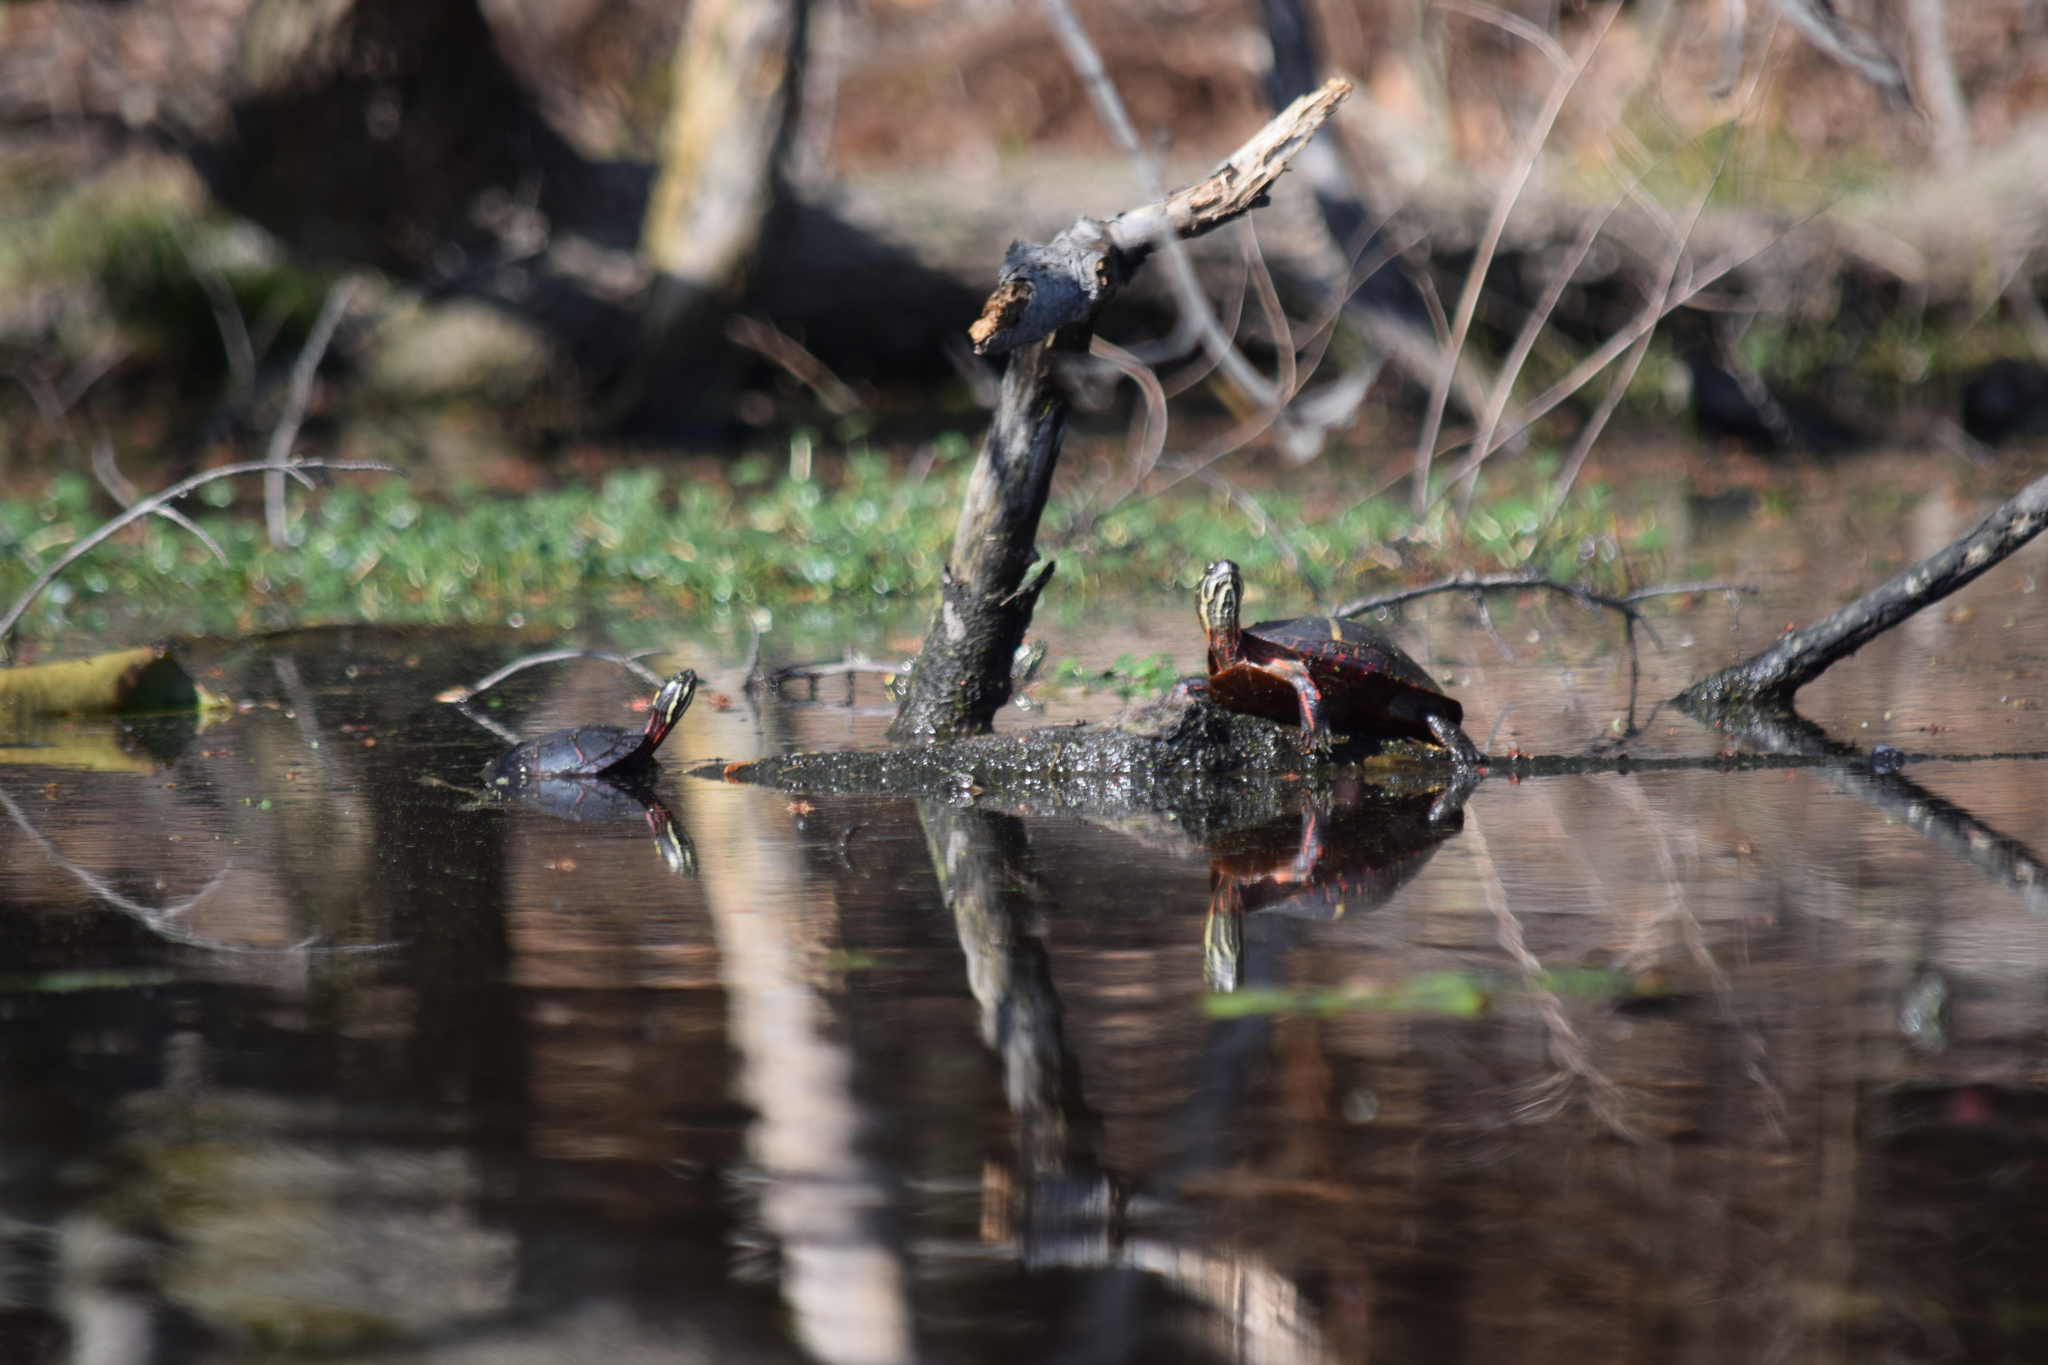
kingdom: Animalia
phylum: Chordata
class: Testudines
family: Emydidae
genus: Chrysemys
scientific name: Chrysemys picta
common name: Painted turtle
